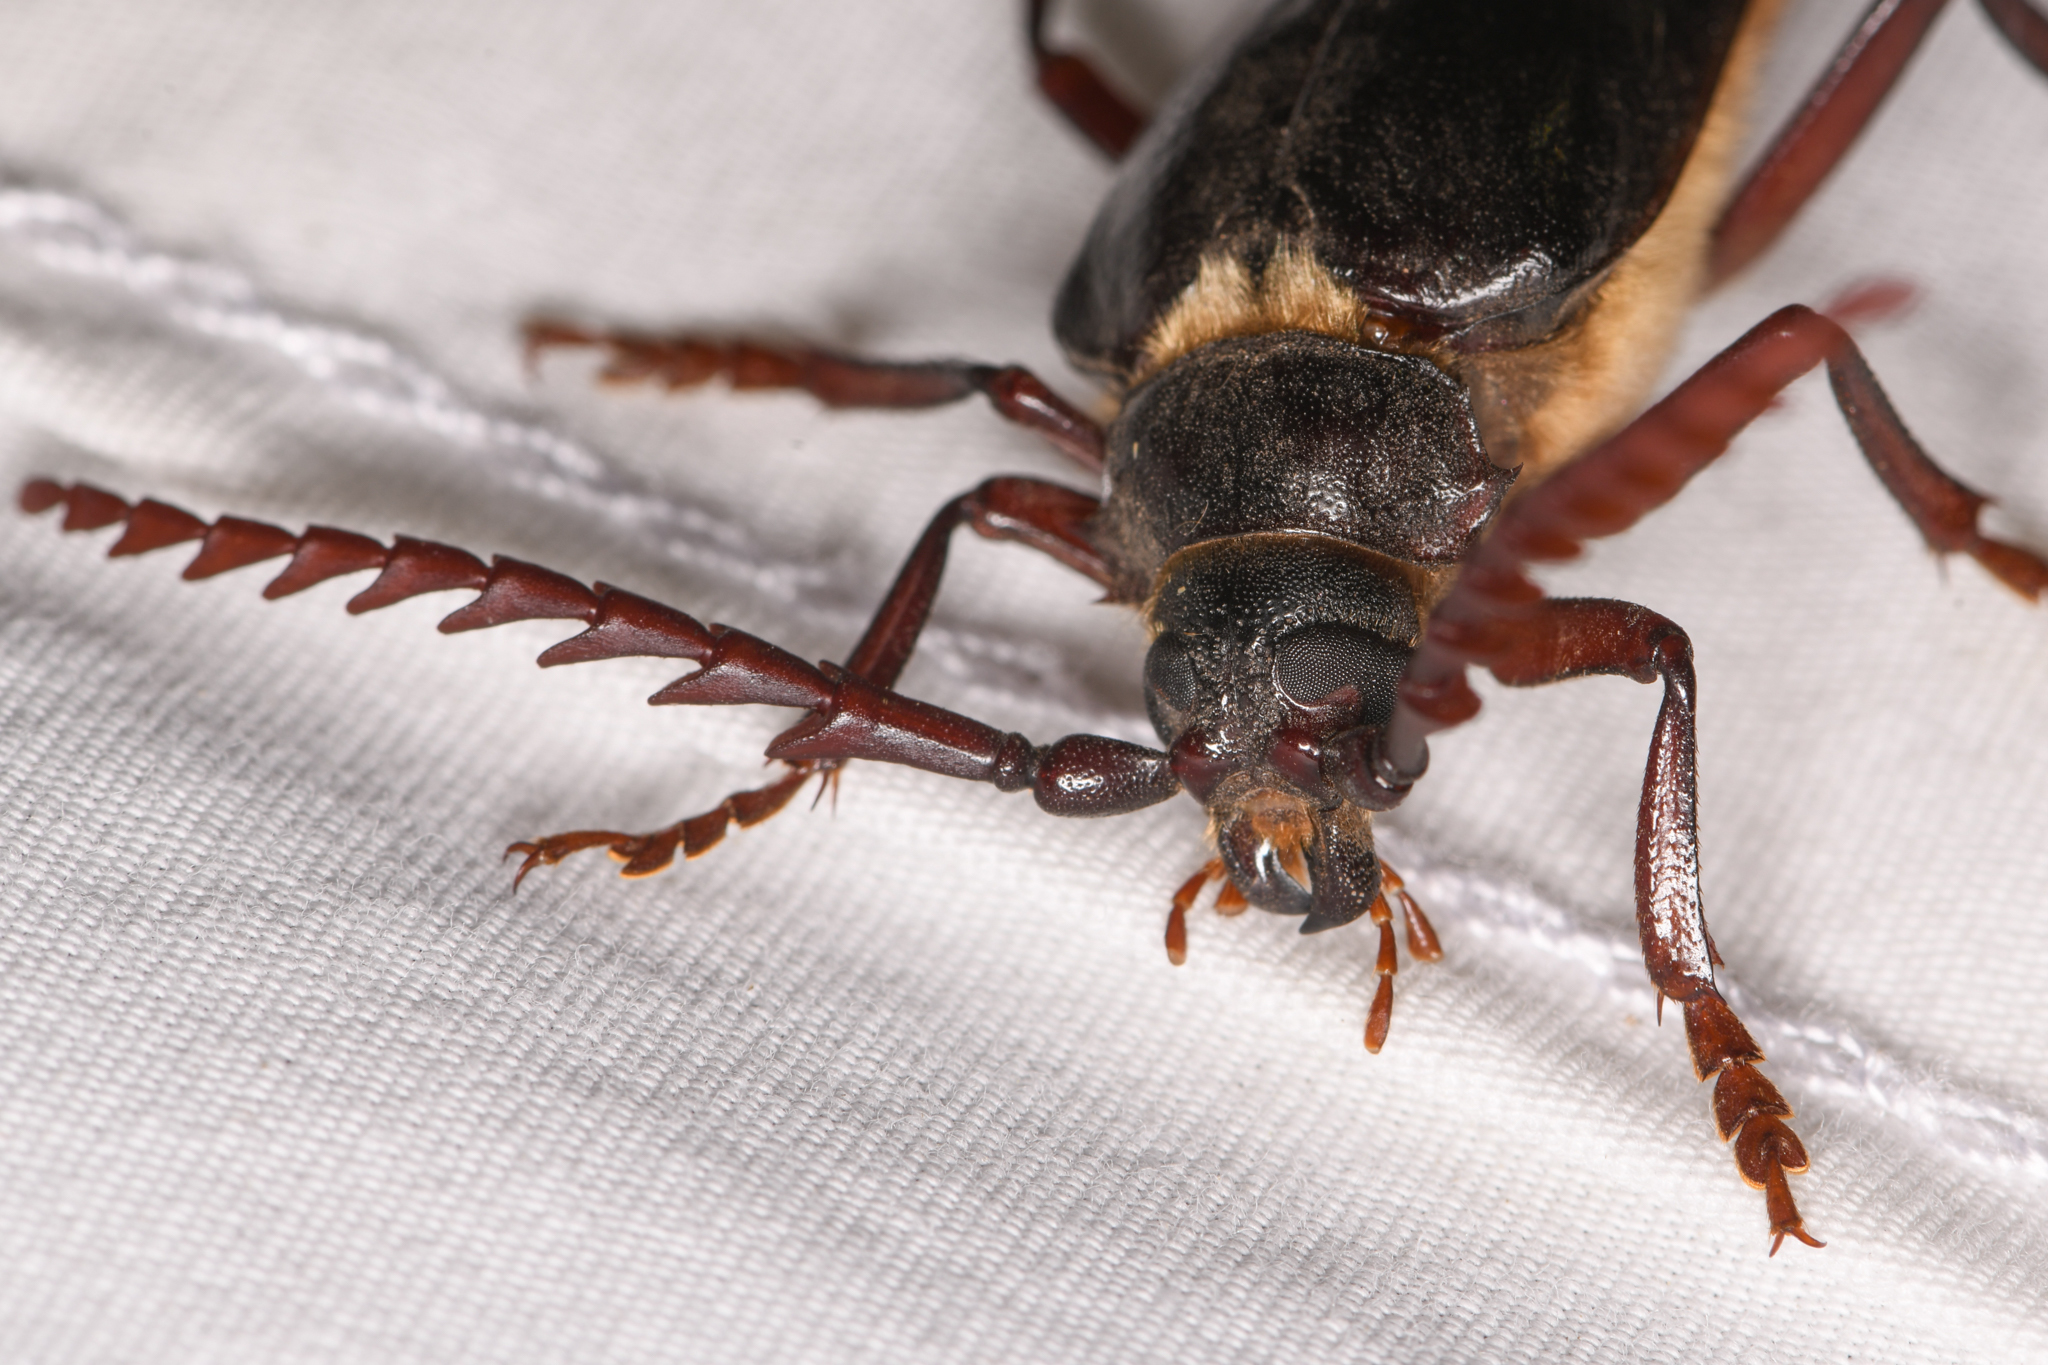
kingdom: Animalia
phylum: Arthropoda
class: Insecta
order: Coleoptera
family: Cerambycidae
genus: Prionus
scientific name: Prionus californicus
